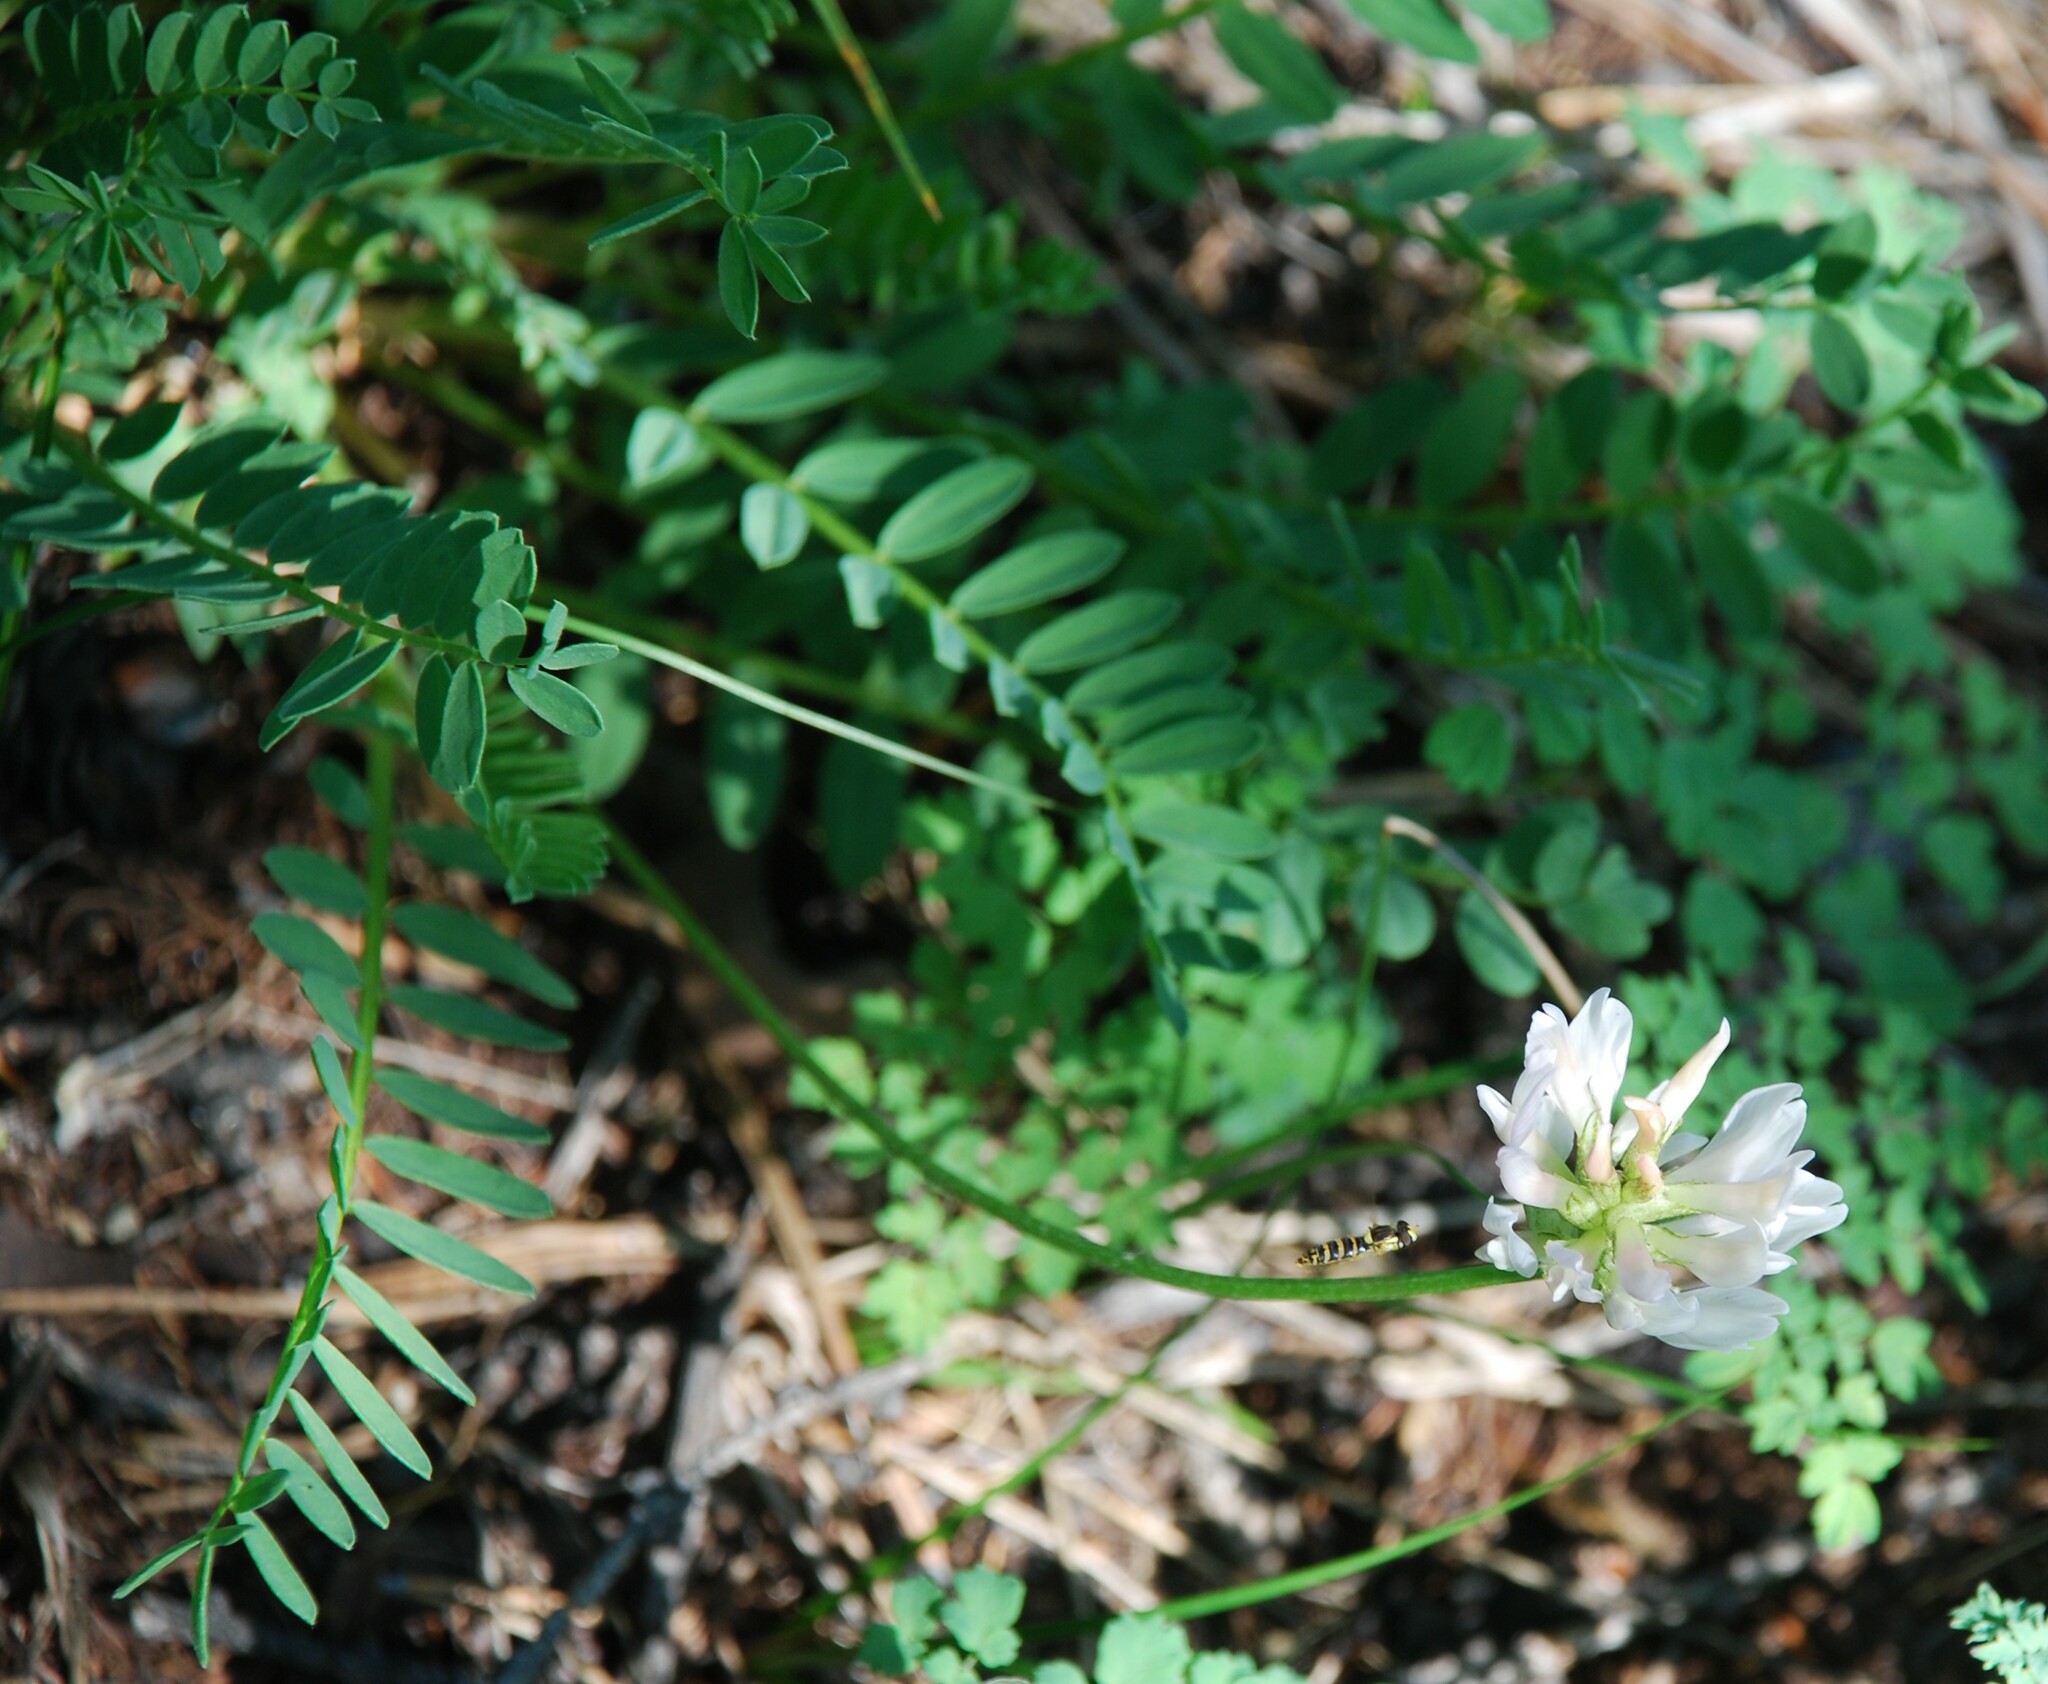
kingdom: Plantae
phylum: Tracheophyta
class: Magnoliopsida
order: Fabales
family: Fabaceae
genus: Astragalus
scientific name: Astragalus laxmannii
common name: Laxmann's milk-vetch
